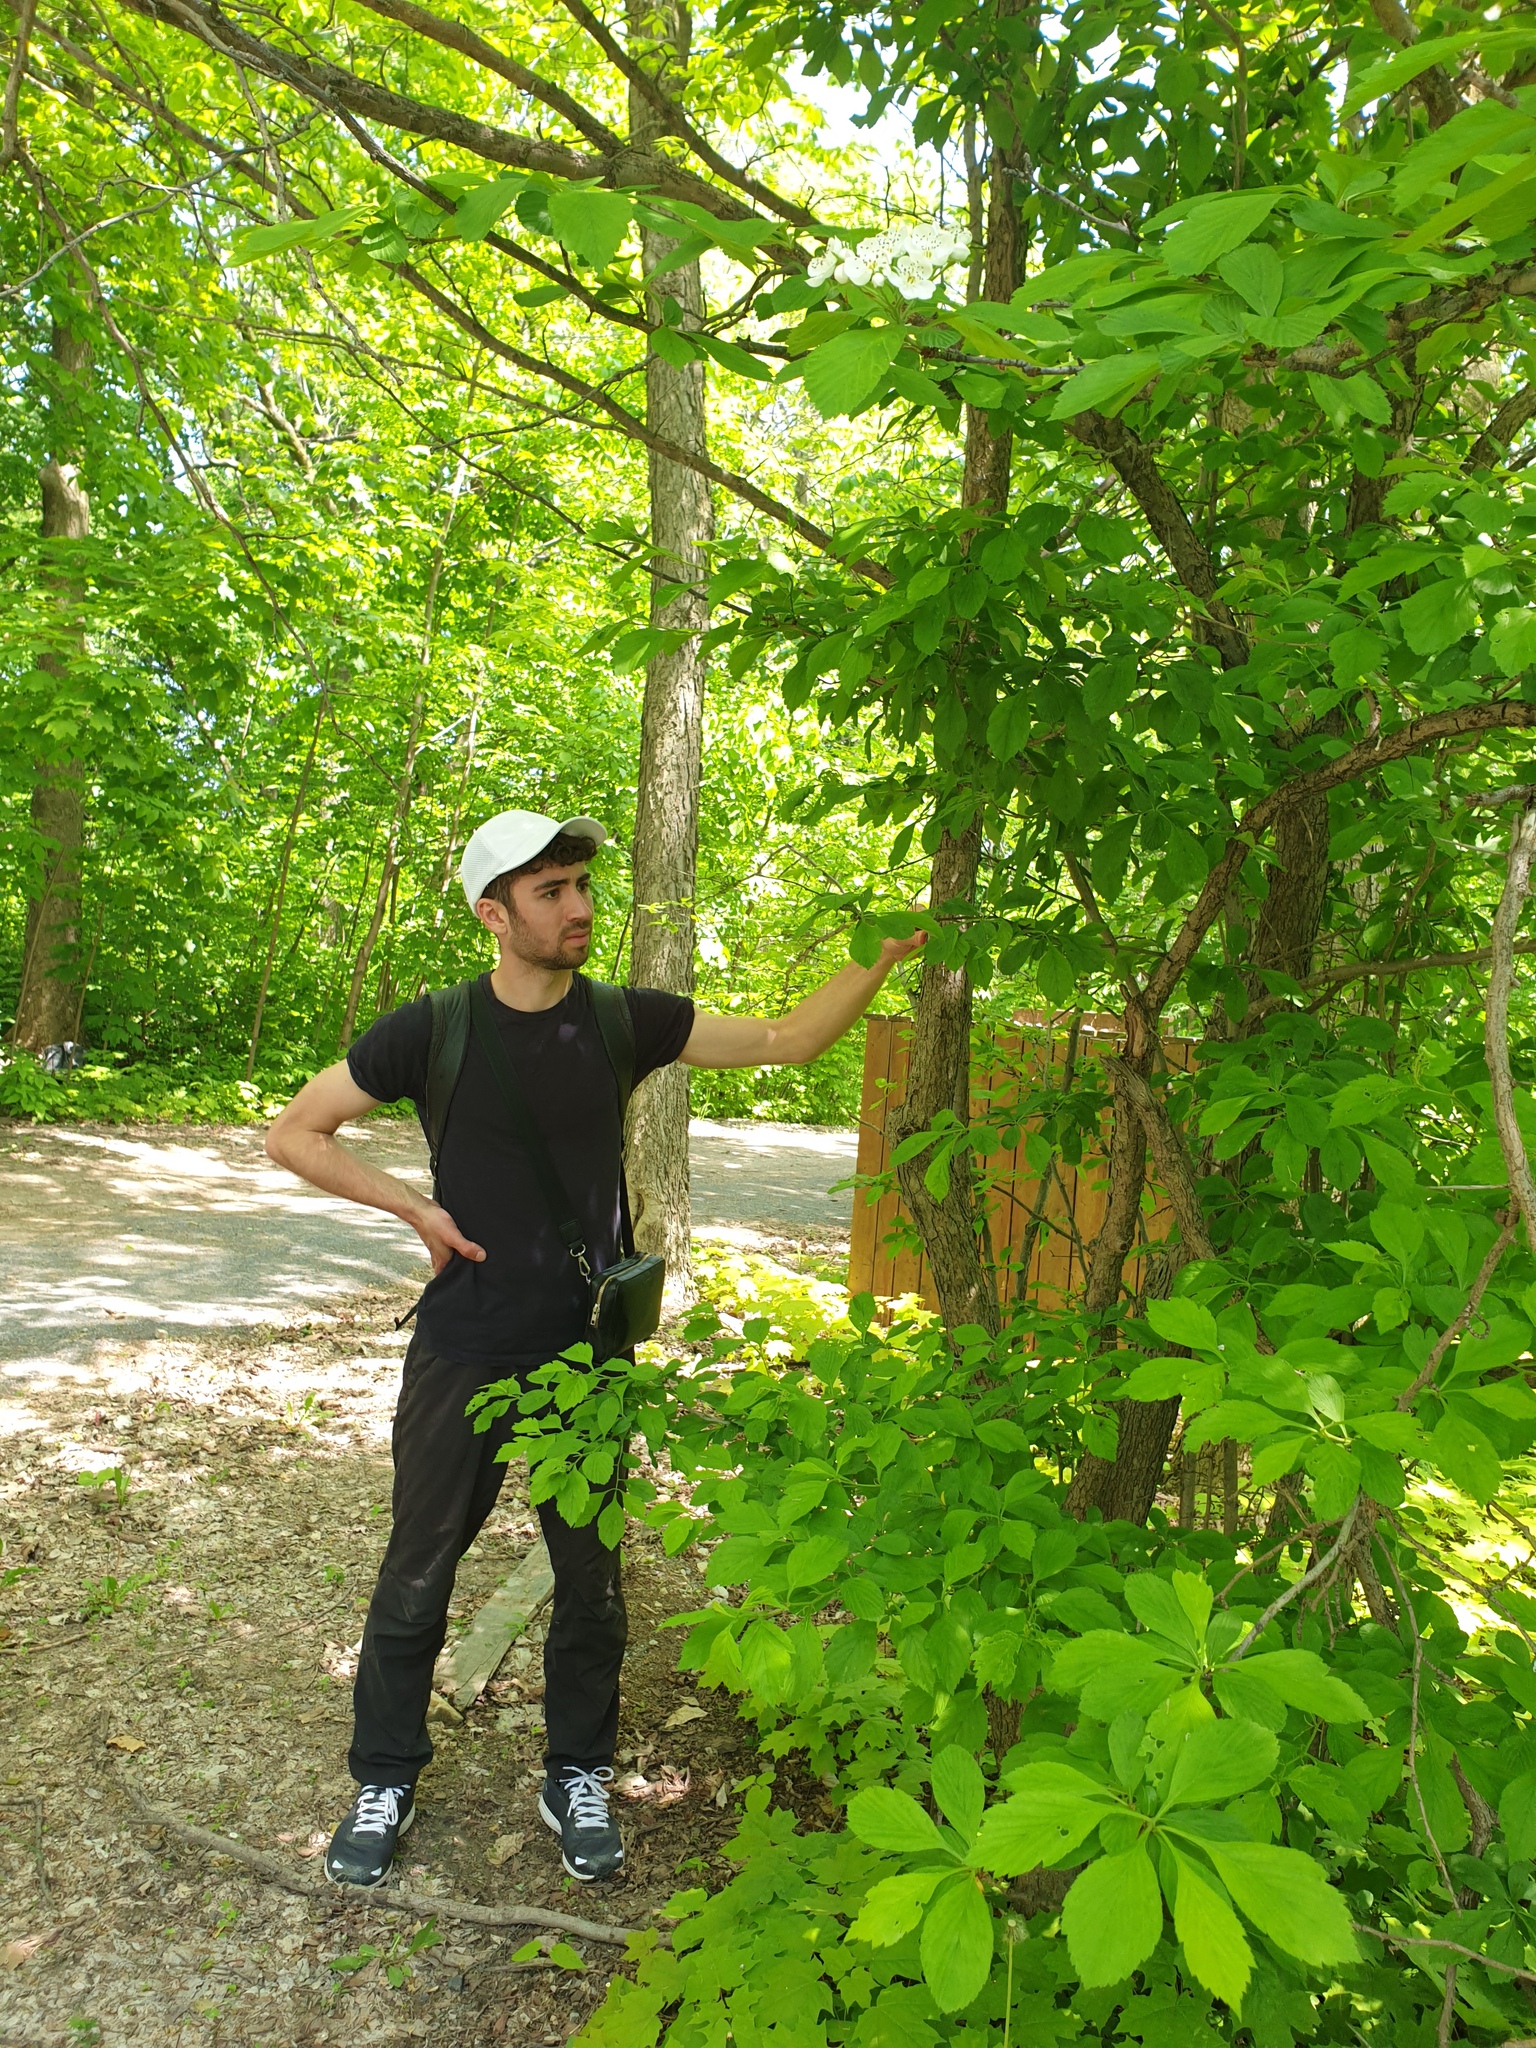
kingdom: Plantae
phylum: Tracheophyta
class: Magnoliopsida
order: Rosales
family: Rosaceae
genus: Crataegus
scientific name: Crataegus punctata
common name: Dotted hawthorn
